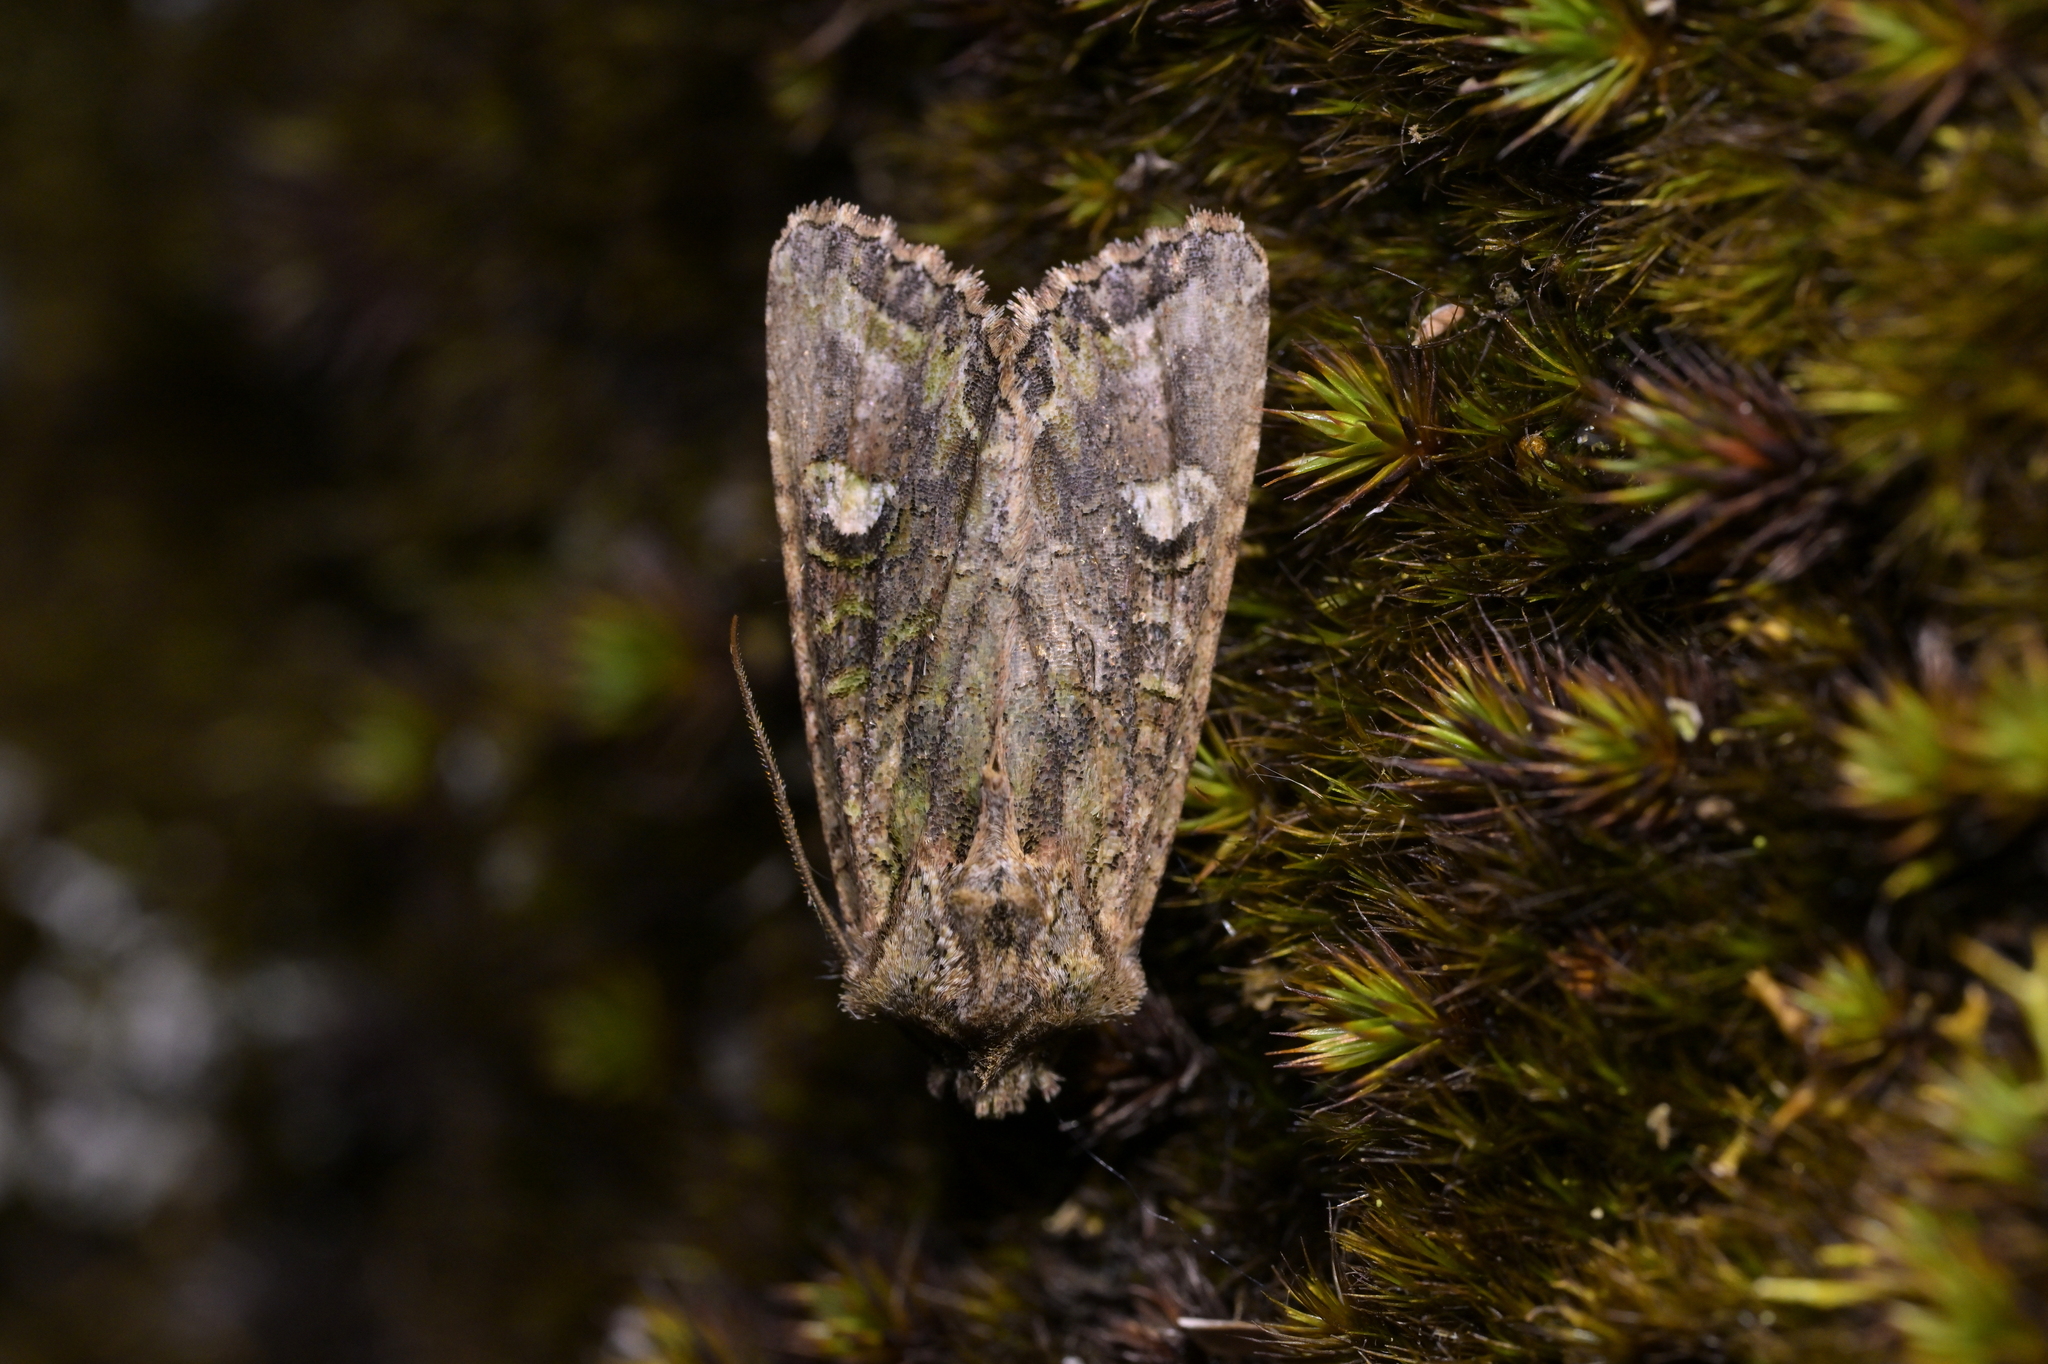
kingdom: Animalia
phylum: Arthropoda
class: Insecta
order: Lepidoptera
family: Noctuidae
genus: Ichneutica
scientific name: Ichneutica insignis
